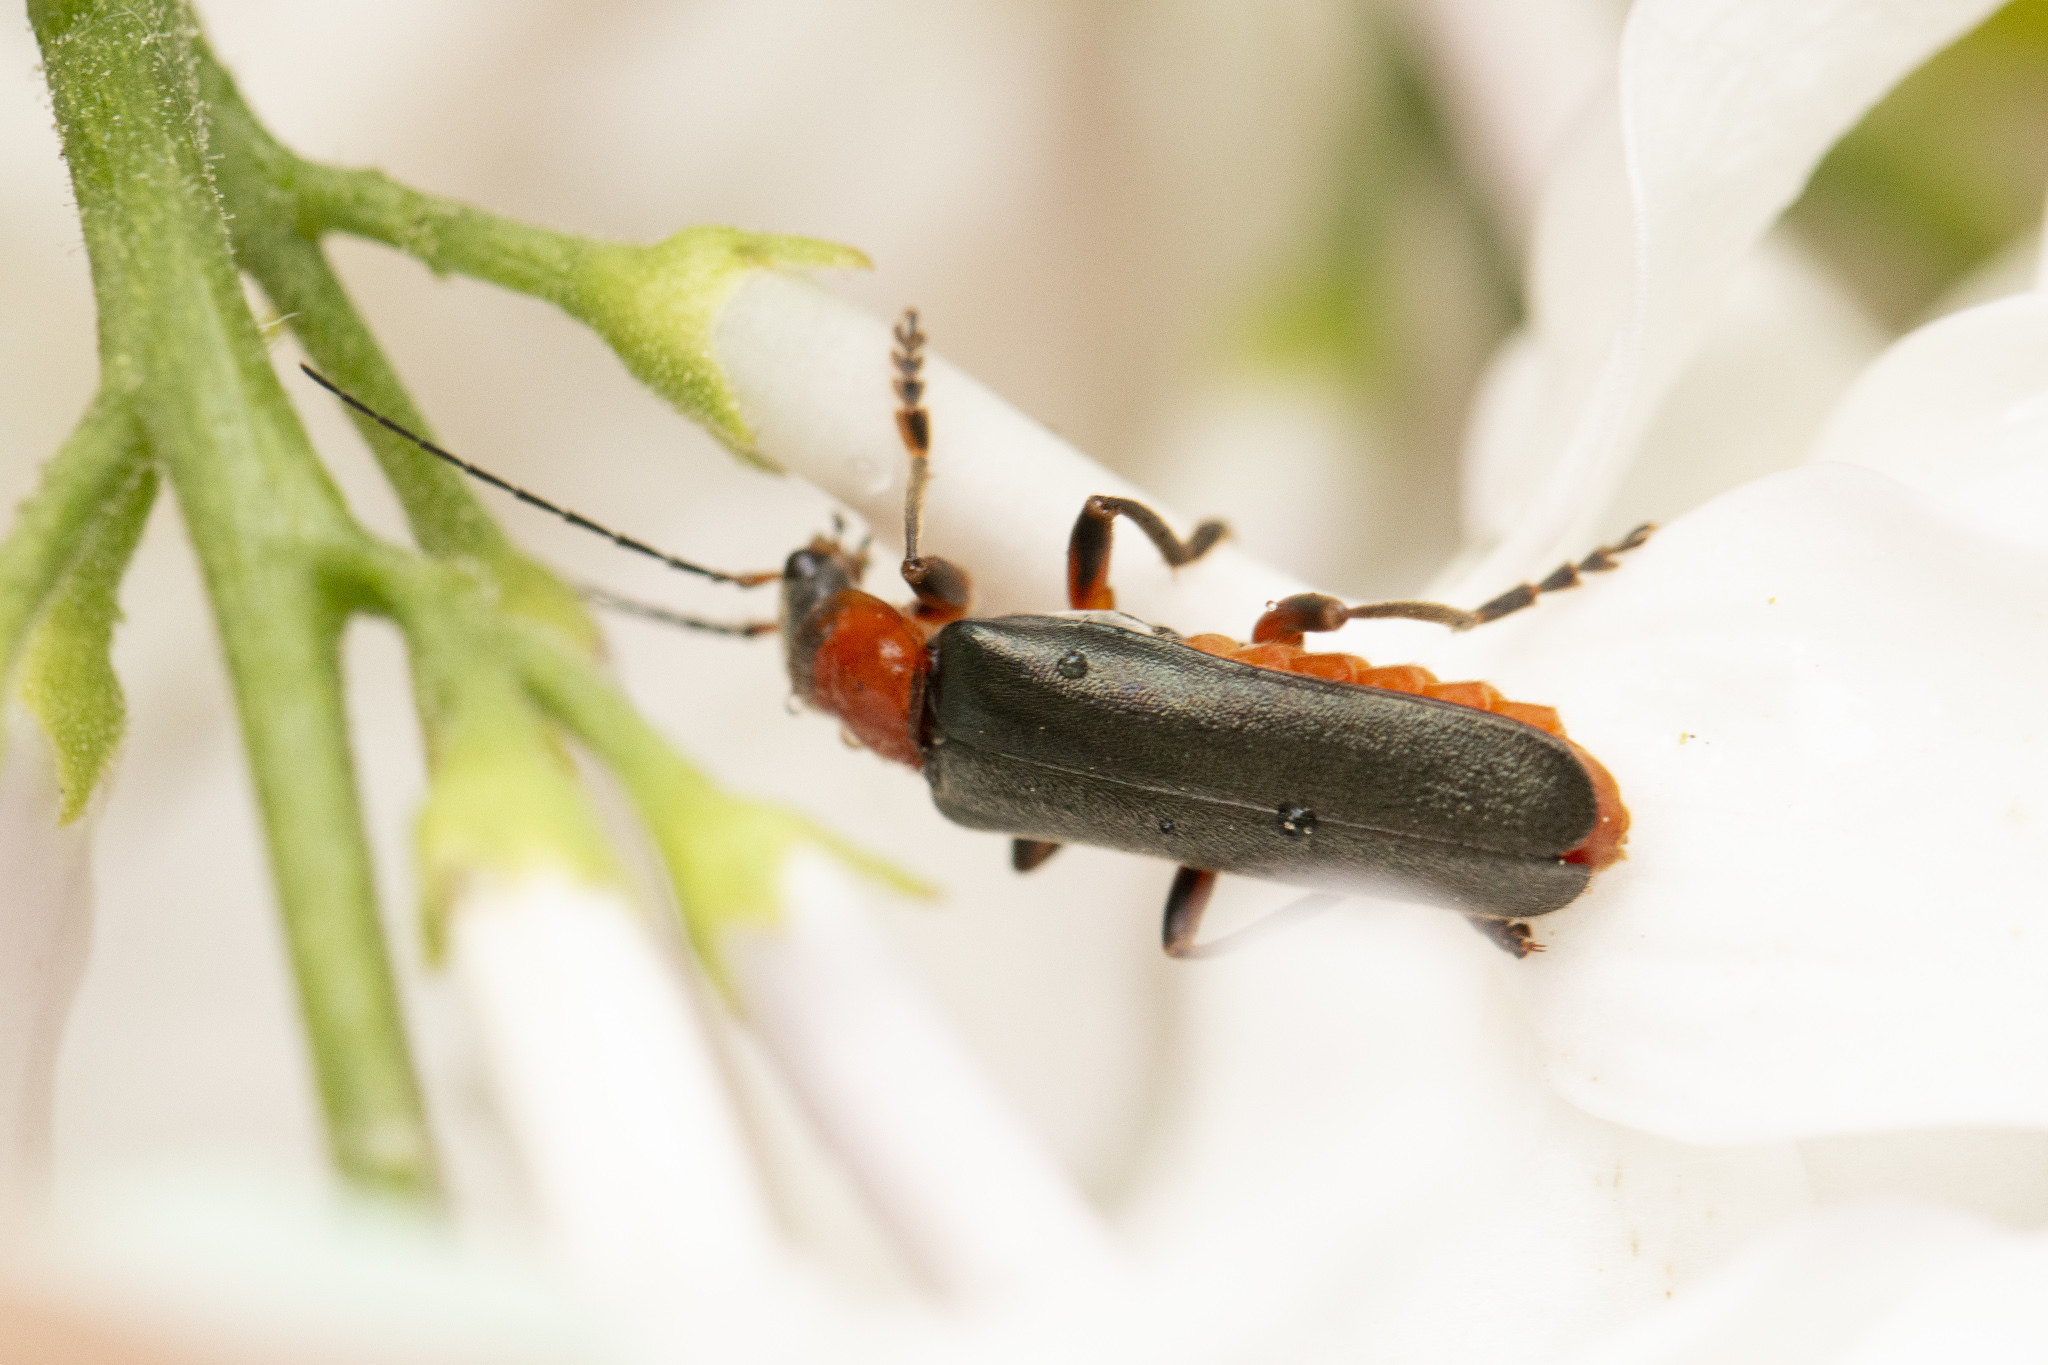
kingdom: Animalia
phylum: Arthropoda
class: Insecta
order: Coleoptera
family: Cantharidae
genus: Cantharis
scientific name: Cantharis pellucida
